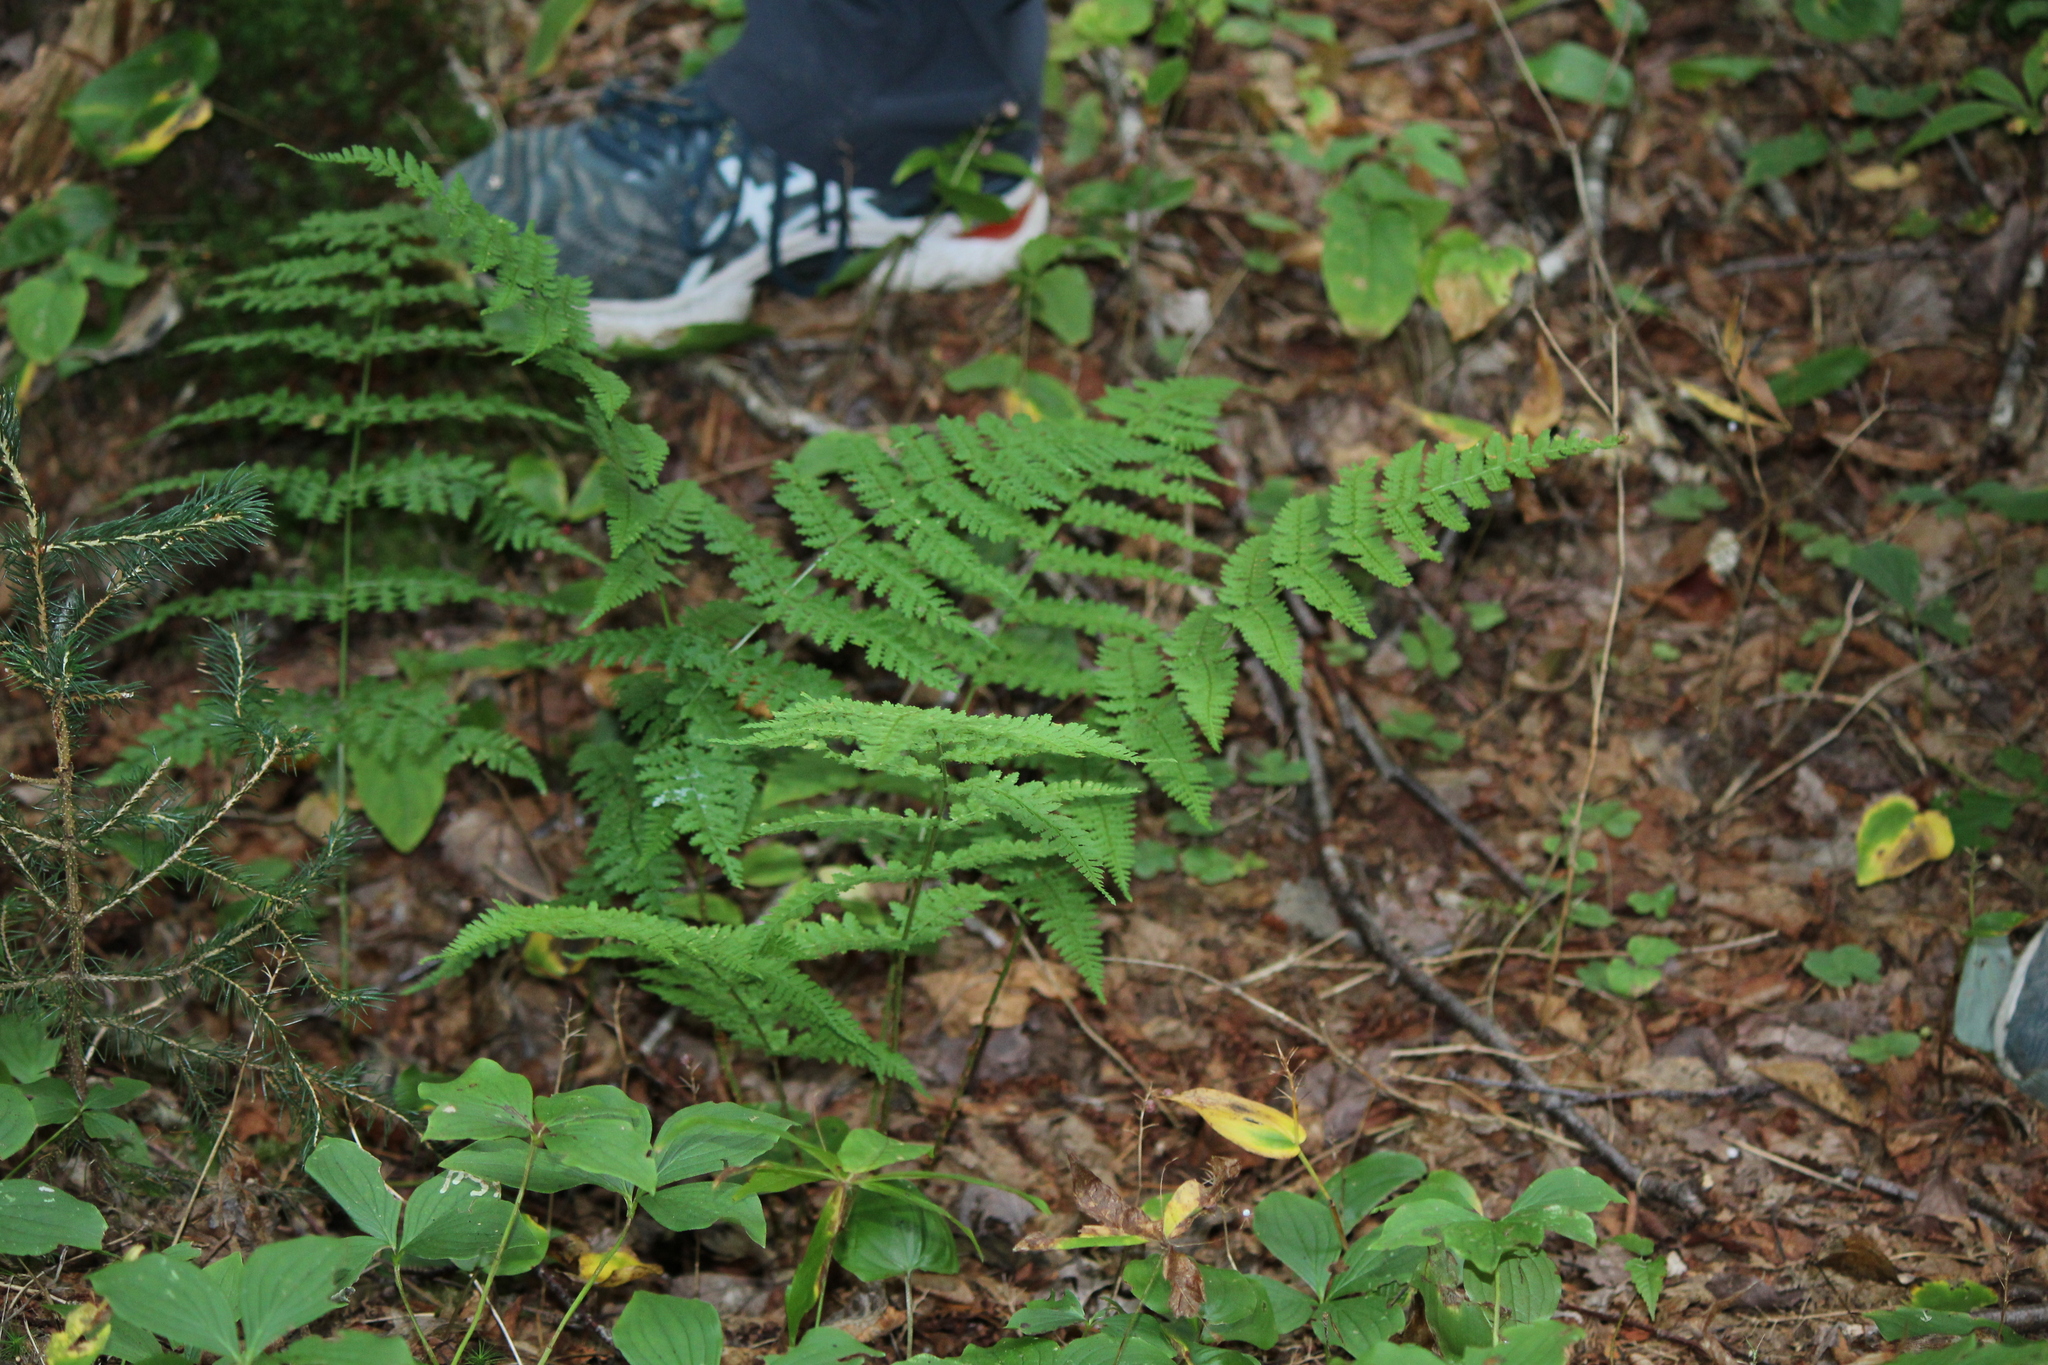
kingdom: Plantae
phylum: Tracheophyta
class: Polypodiopsida
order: Polypodiales
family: Dryopteridaceae
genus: Dryopteris
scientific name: Dryopteris intermedia
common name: Evergreen wood fern
